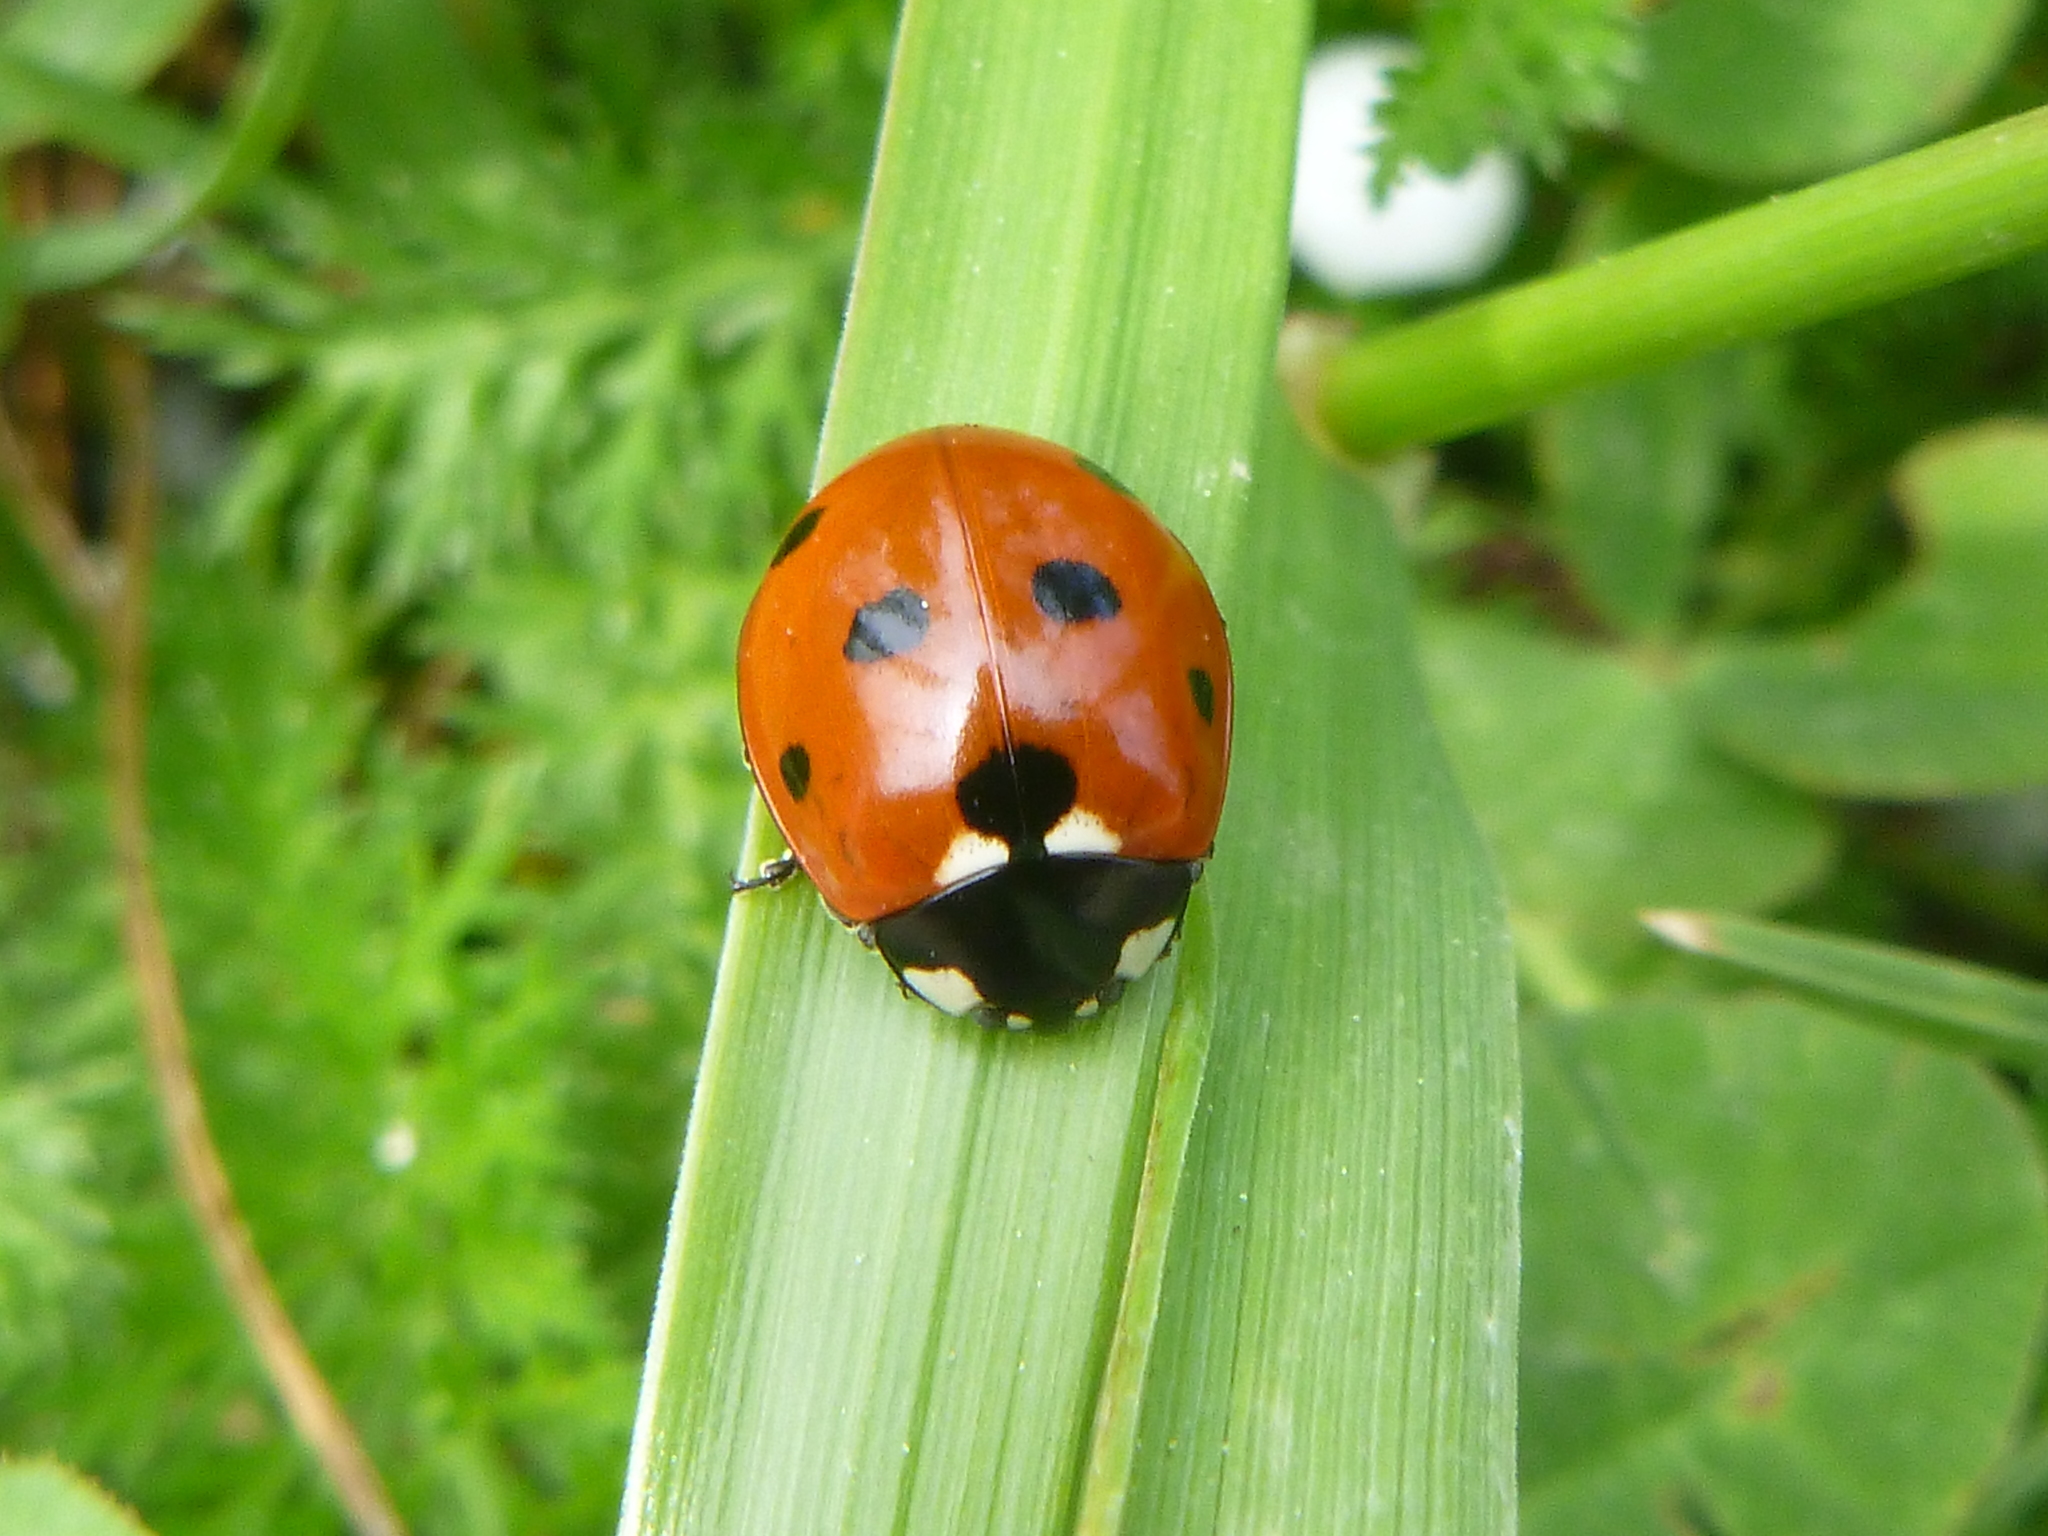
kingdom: Animalia
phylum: Arthropoda
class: Insecta
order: Coleoptera
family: Coccinellidae
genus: Coccinella
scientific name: Coccinella septempunctata
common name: Sevenspotted lady beetle
